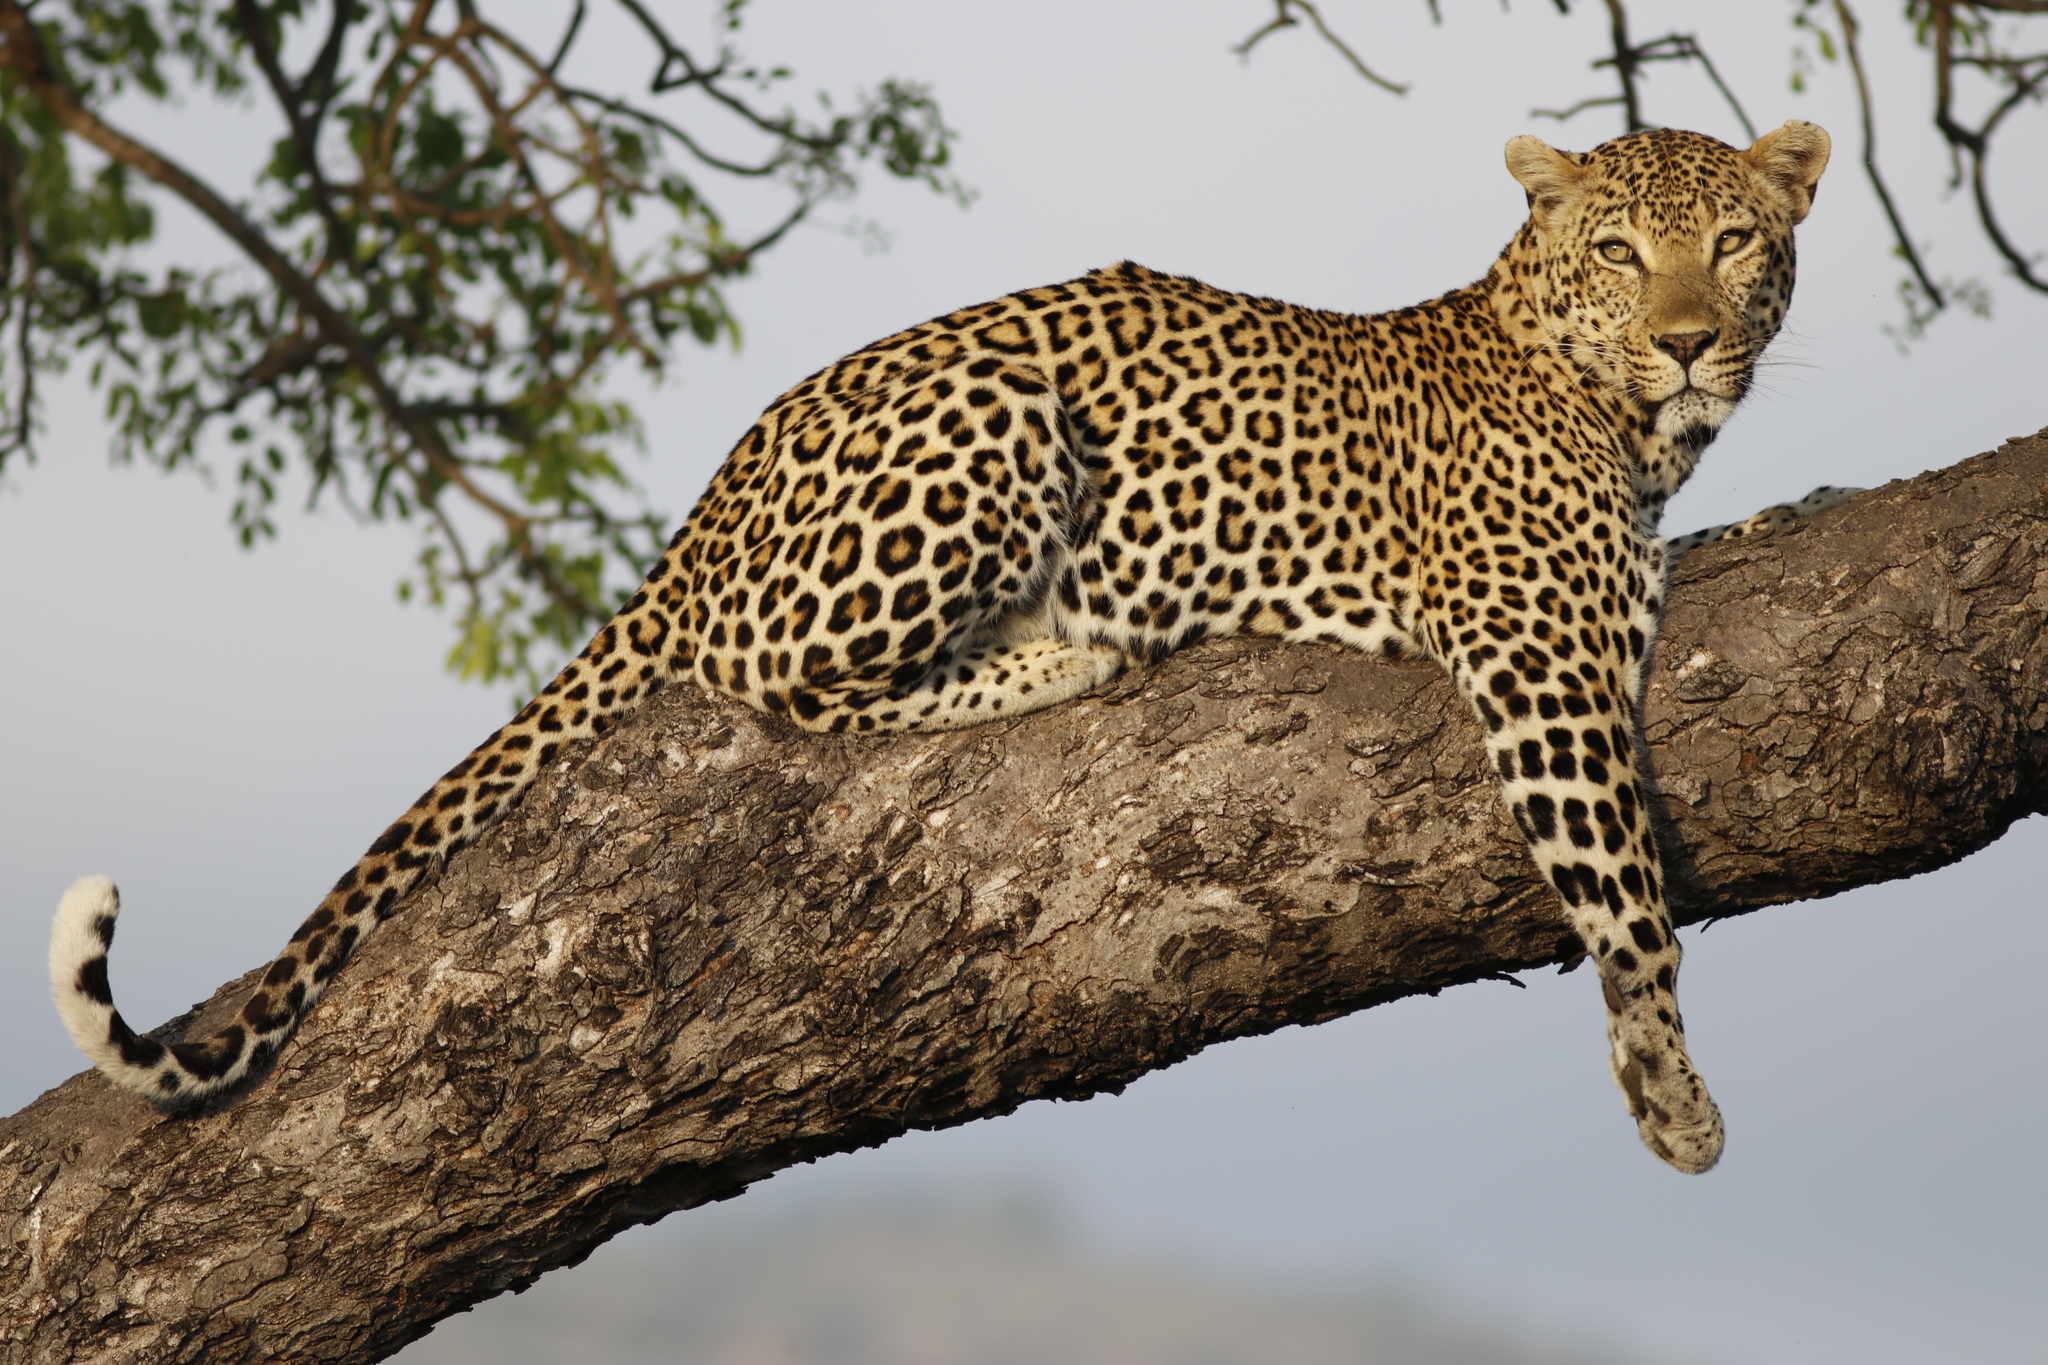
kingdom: Animalia
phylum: Chordata
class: Mammalia
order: Carnivora
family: Felidae
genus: Panthera
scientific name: Panthera pardus
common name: Leopard
